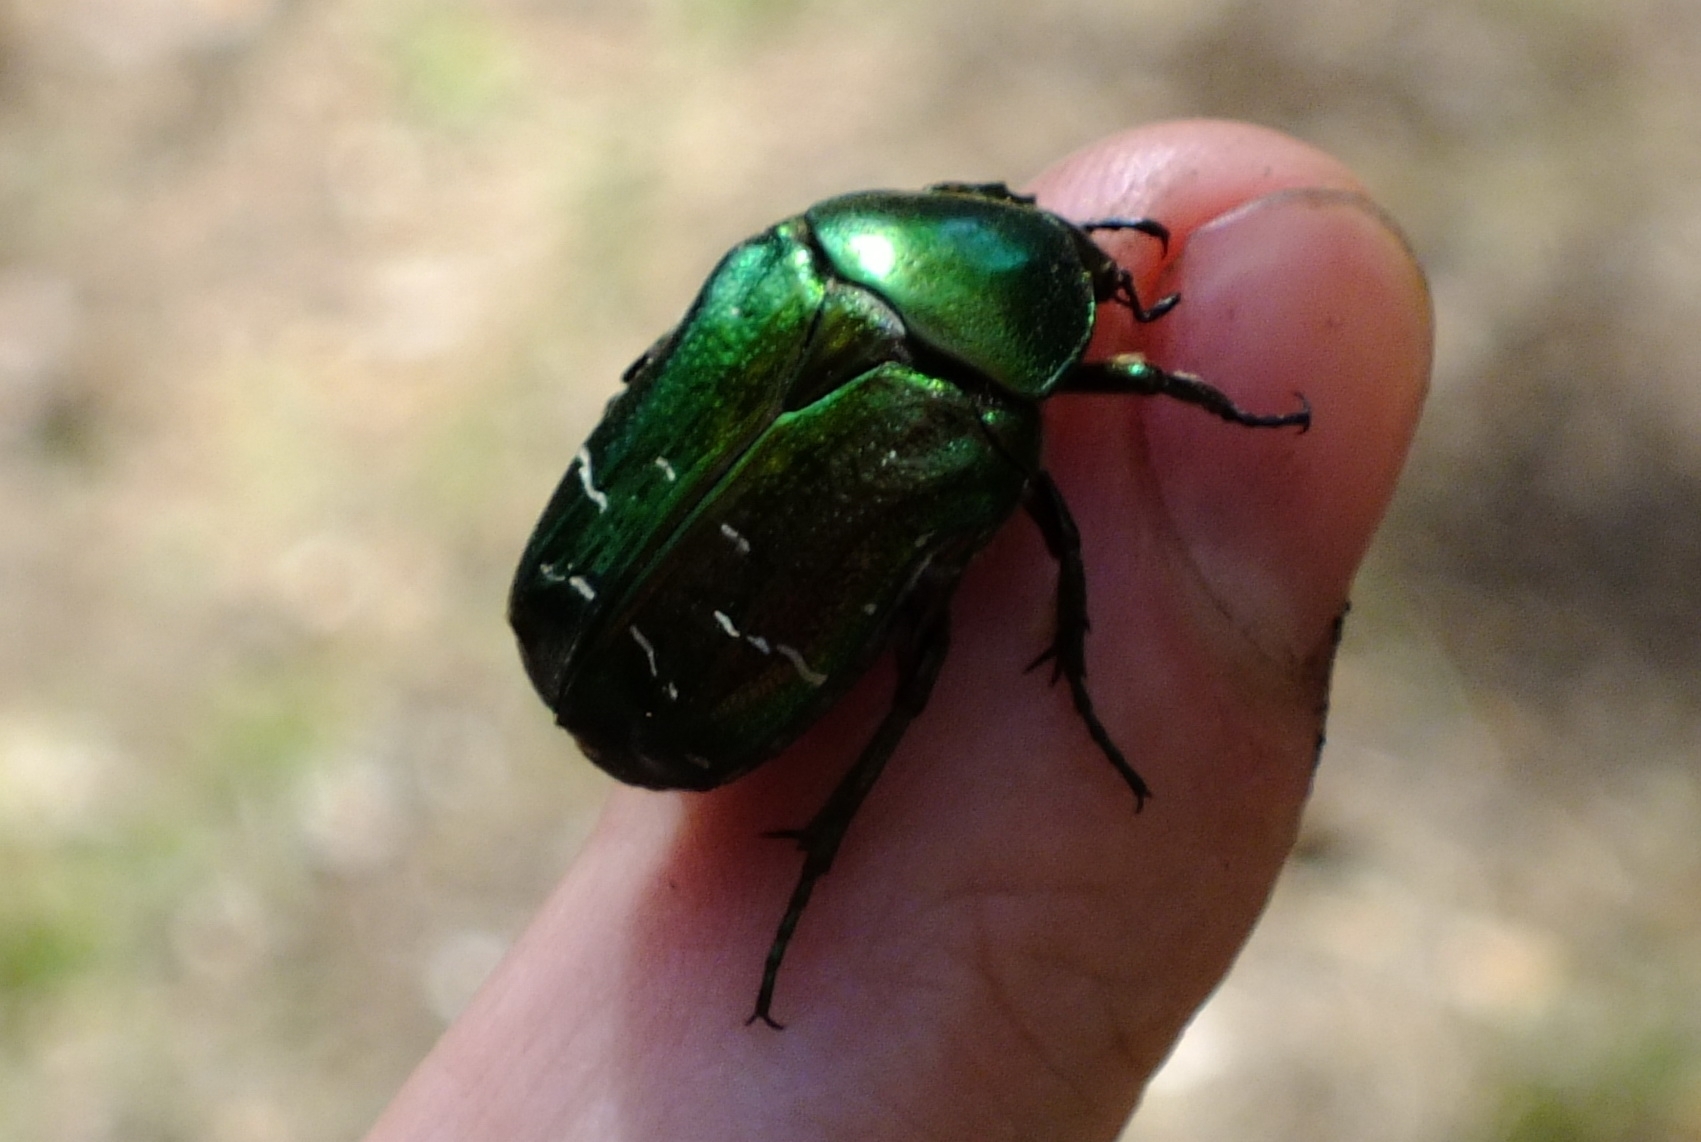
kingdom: Animalia
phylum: Arthropoda
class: Insecta
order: Coleoptera
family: Scarabaeidae
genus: Cetonia
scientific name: Cetonia aurata
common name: Rose chafer
